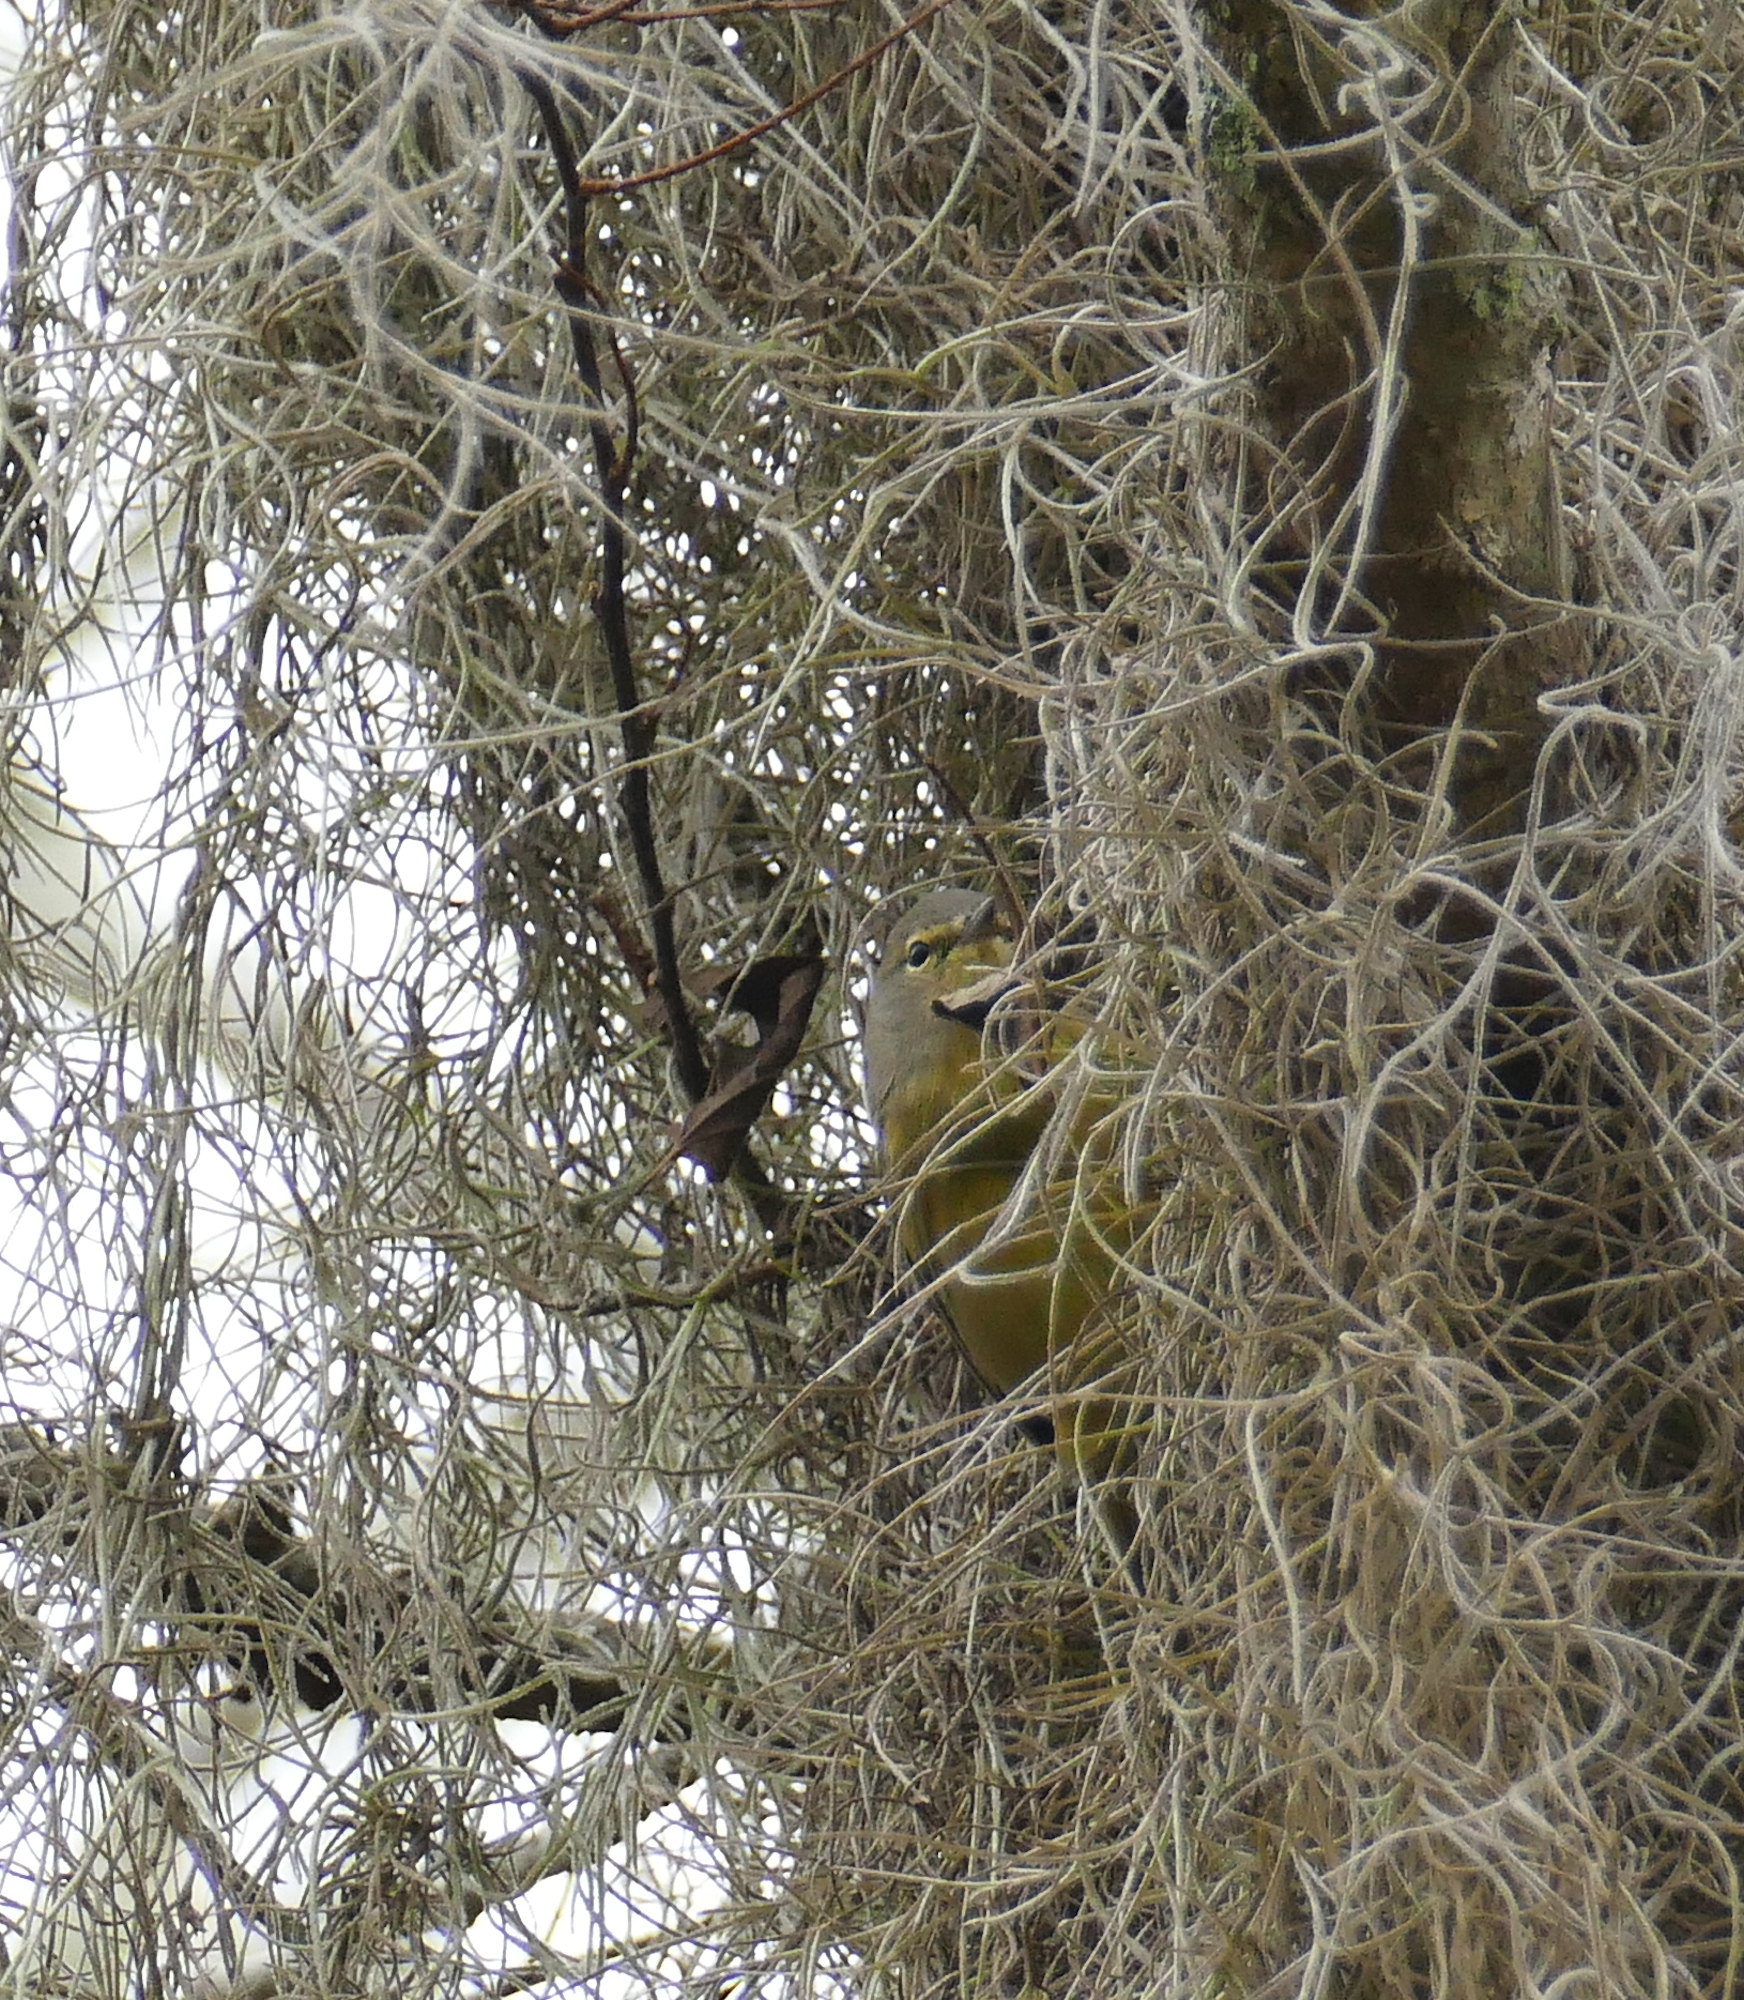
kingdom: Animalia
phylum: Chordata
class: Aves
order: Passeriformes
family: Parulidae
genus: Leiothlypis
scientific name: Leiothlypis celata
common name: Orange-crowned warbler
